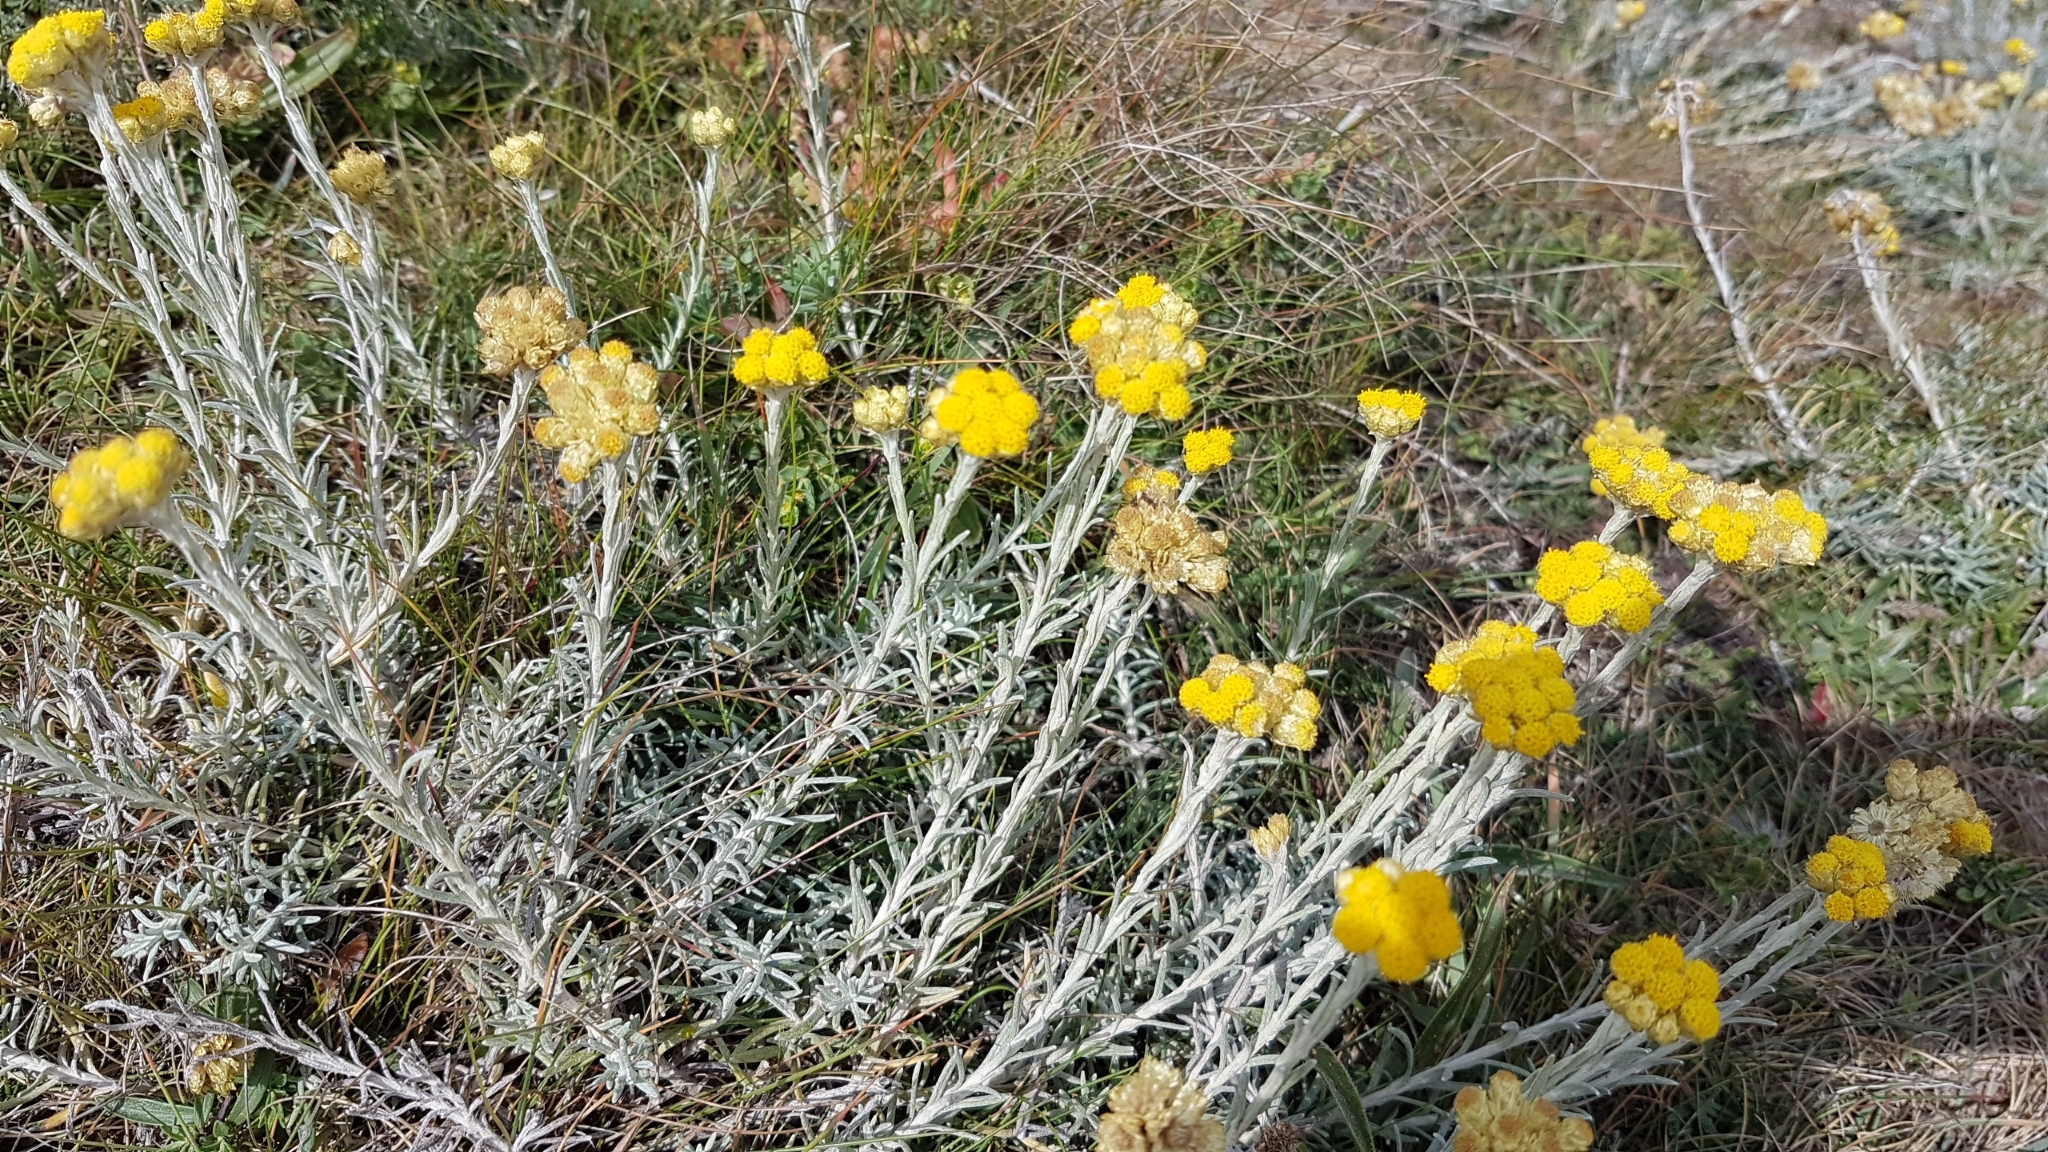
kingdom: Plantae
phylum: Tracheophyta
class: Magnoliopsida
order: Asterales
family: Asteraceae
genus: Helichrysum
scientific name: Helichrysum stoechas
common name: Goldilocks
